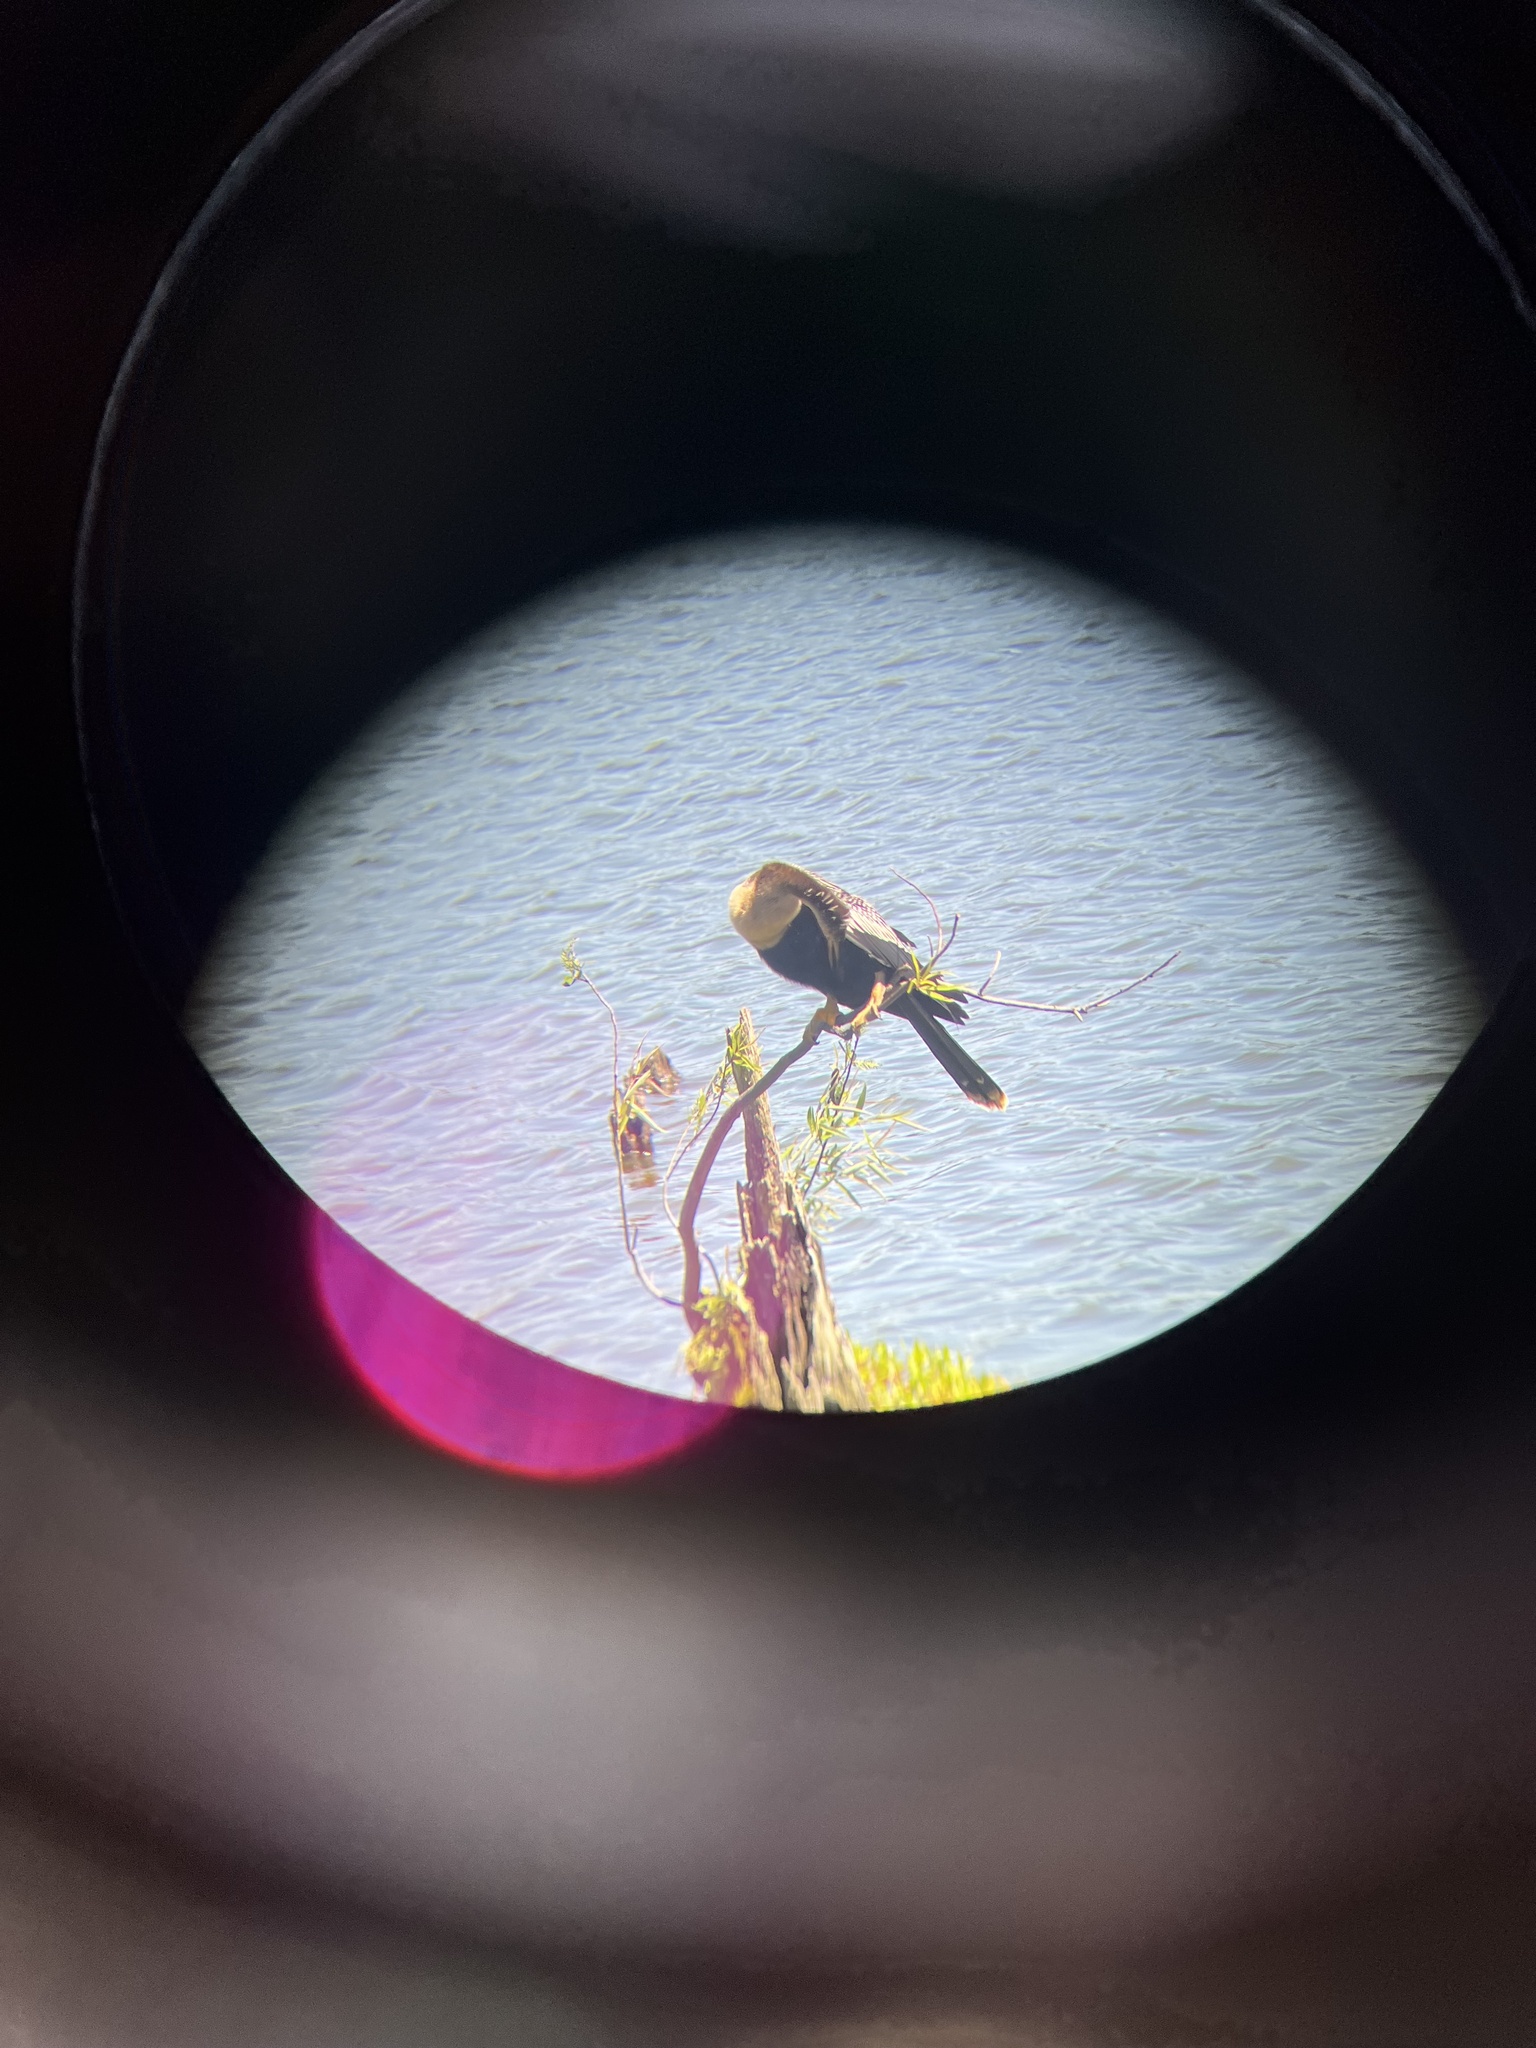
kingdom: Animalia
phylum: Chordata
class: Aves
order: Suliformes
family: Anhingidae
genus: Anhinga
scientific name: Anhinga anhinga
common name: Anhinga
